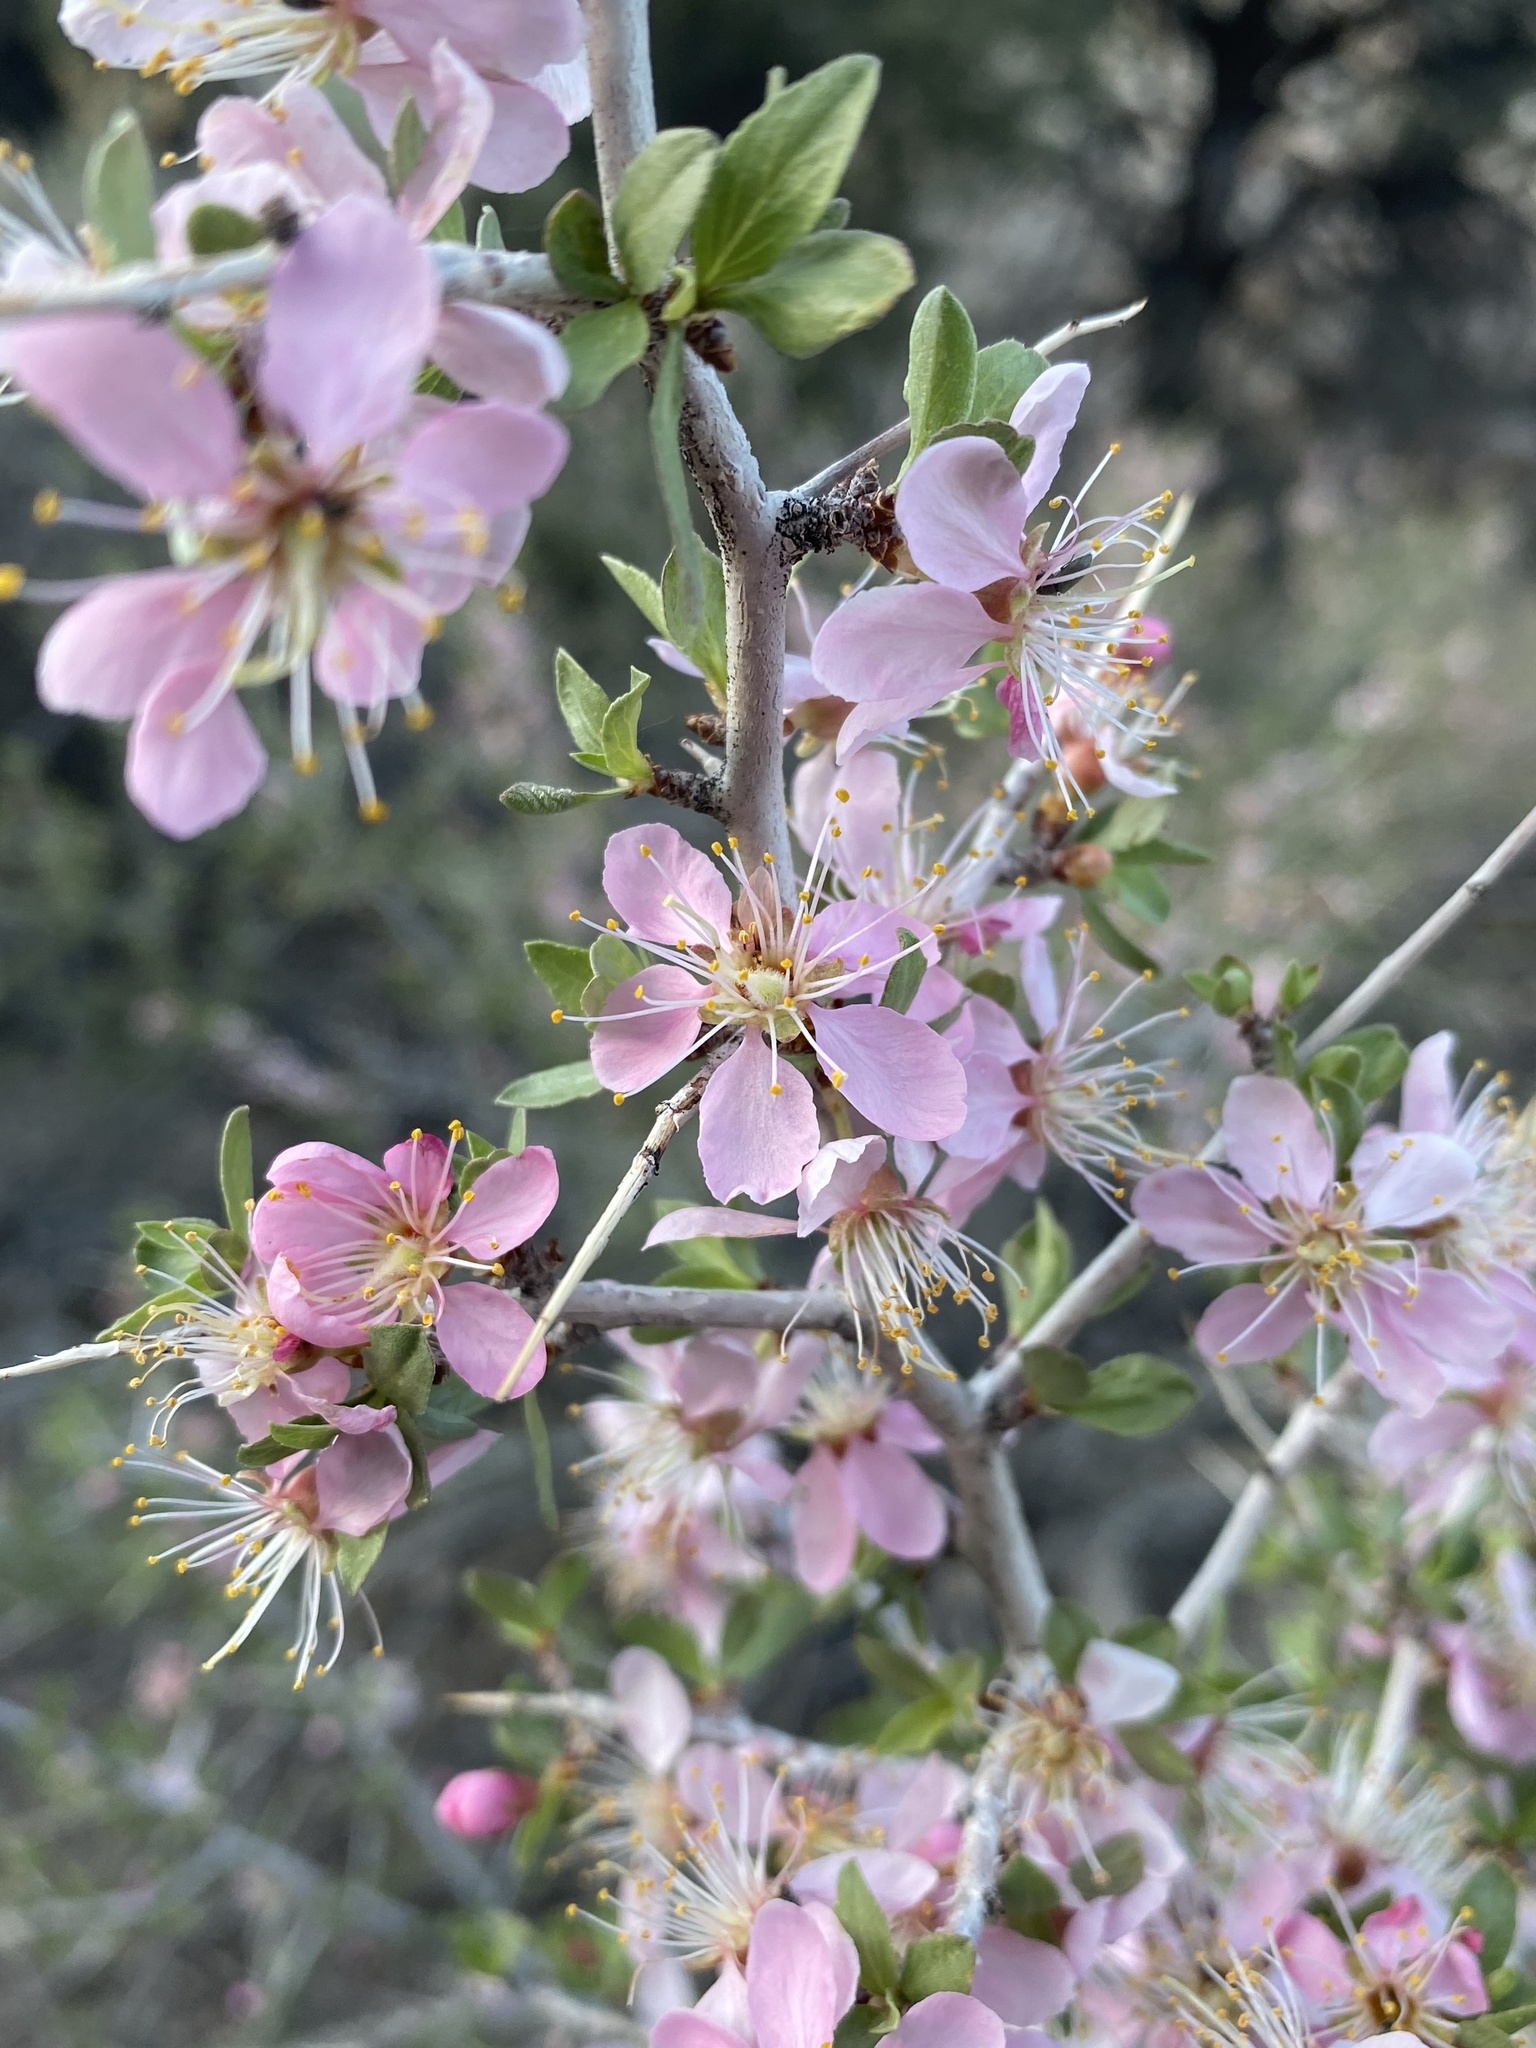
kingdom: Plantae
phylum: Tracheophyta
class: Magnoliopsida
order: Rosales
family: Rosaceae
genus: Prunus
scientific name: Prunus andersonii
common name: Desert peach
